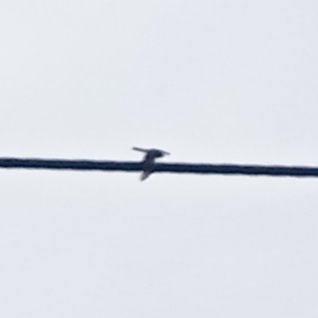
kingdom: Animalia
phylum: Chordata
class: Aves
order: Accipitriformes
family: Accipitridae
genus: Accipiter
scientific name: Accipiter nisus
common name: Eurasian sparrowhawk
